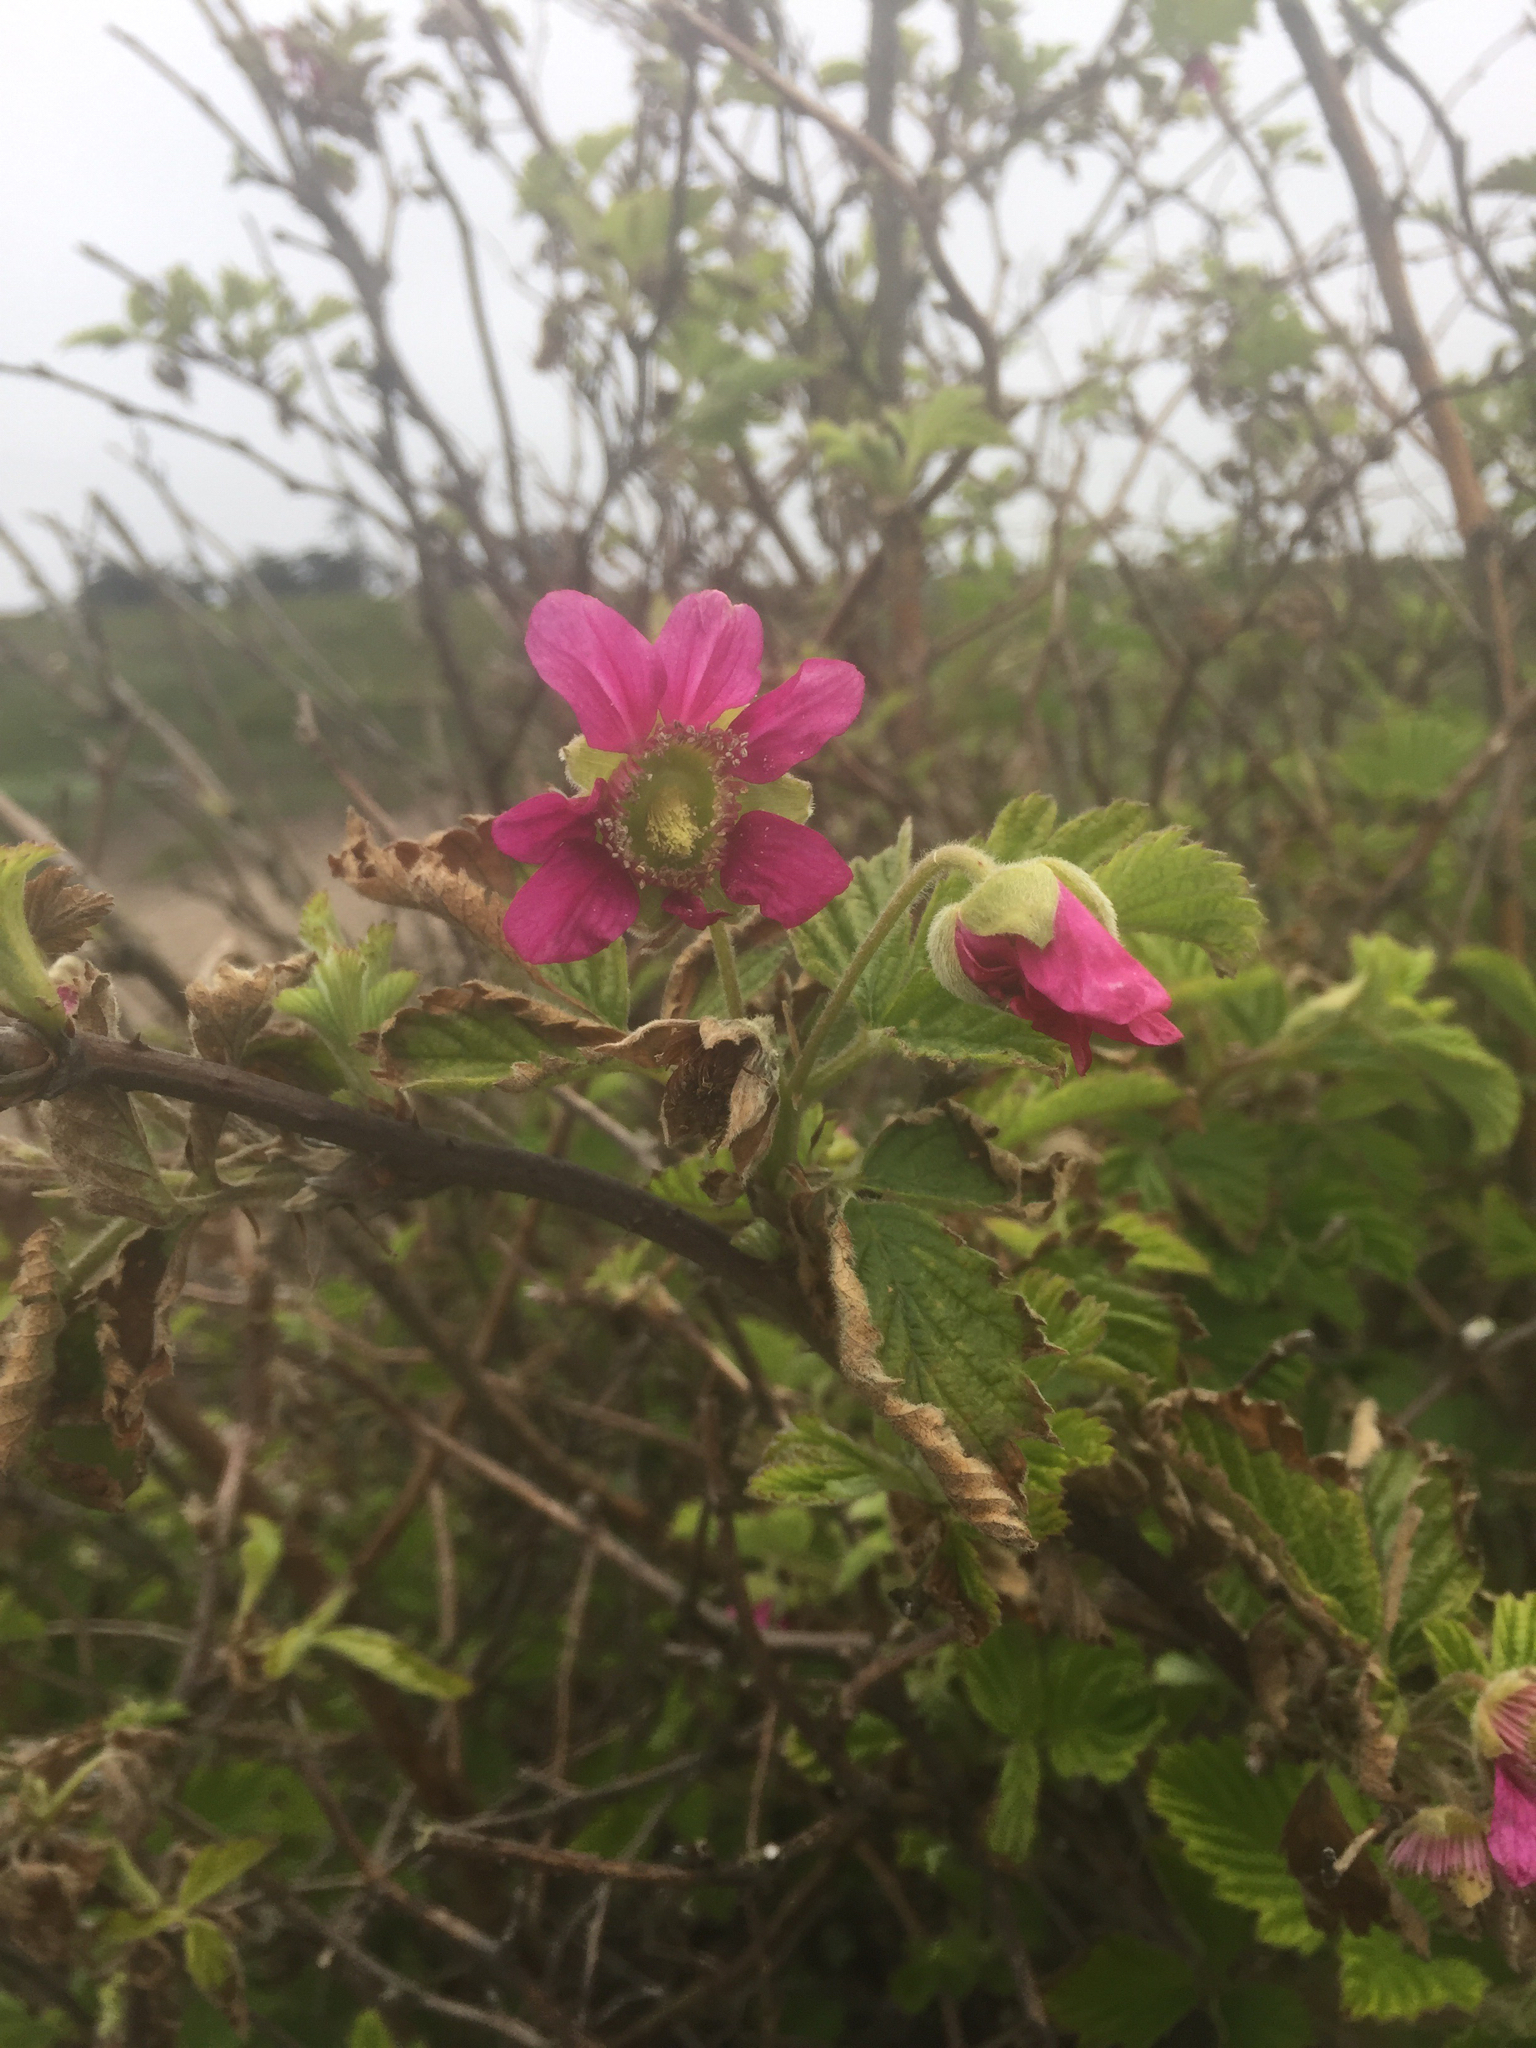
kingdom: Plantae
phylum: Tracheophyta
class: Magnoliopsida
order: Rosales
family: Rosaceae
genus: Rubus
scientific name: Rubus spectabilis
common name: Salmonberry
